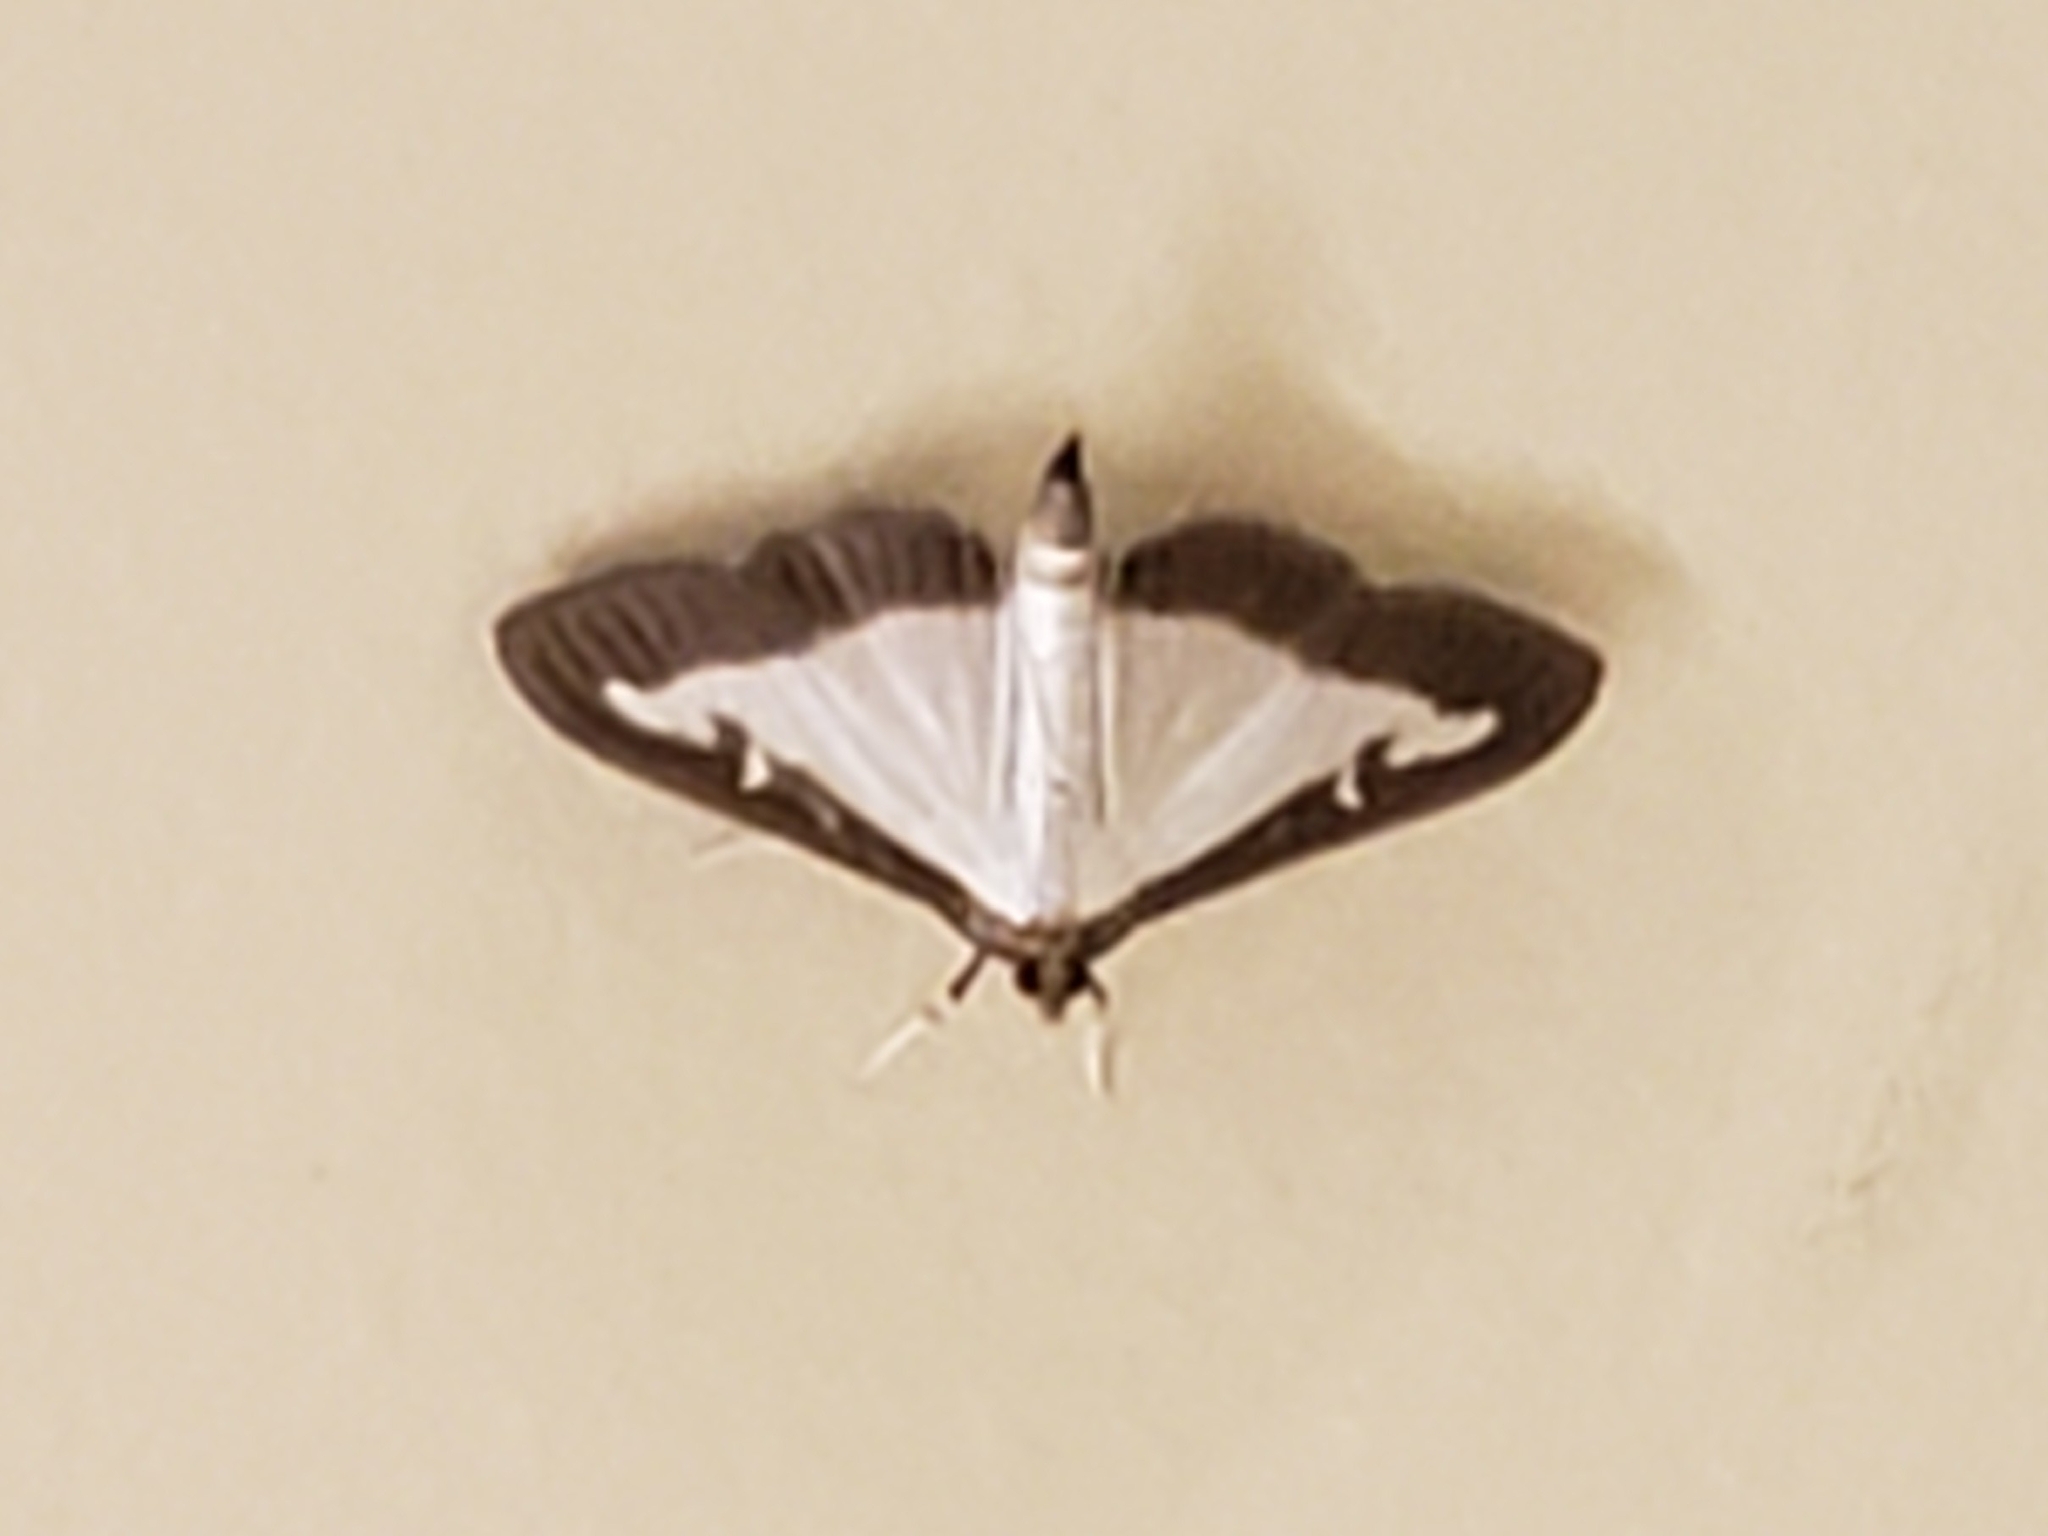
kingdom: Animalia
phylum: Arthropoda
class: Insecta
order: Lepidoptera
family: Crambidae
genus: Cydalima
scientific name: Cydalima perspectalis
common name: Box tree moth
